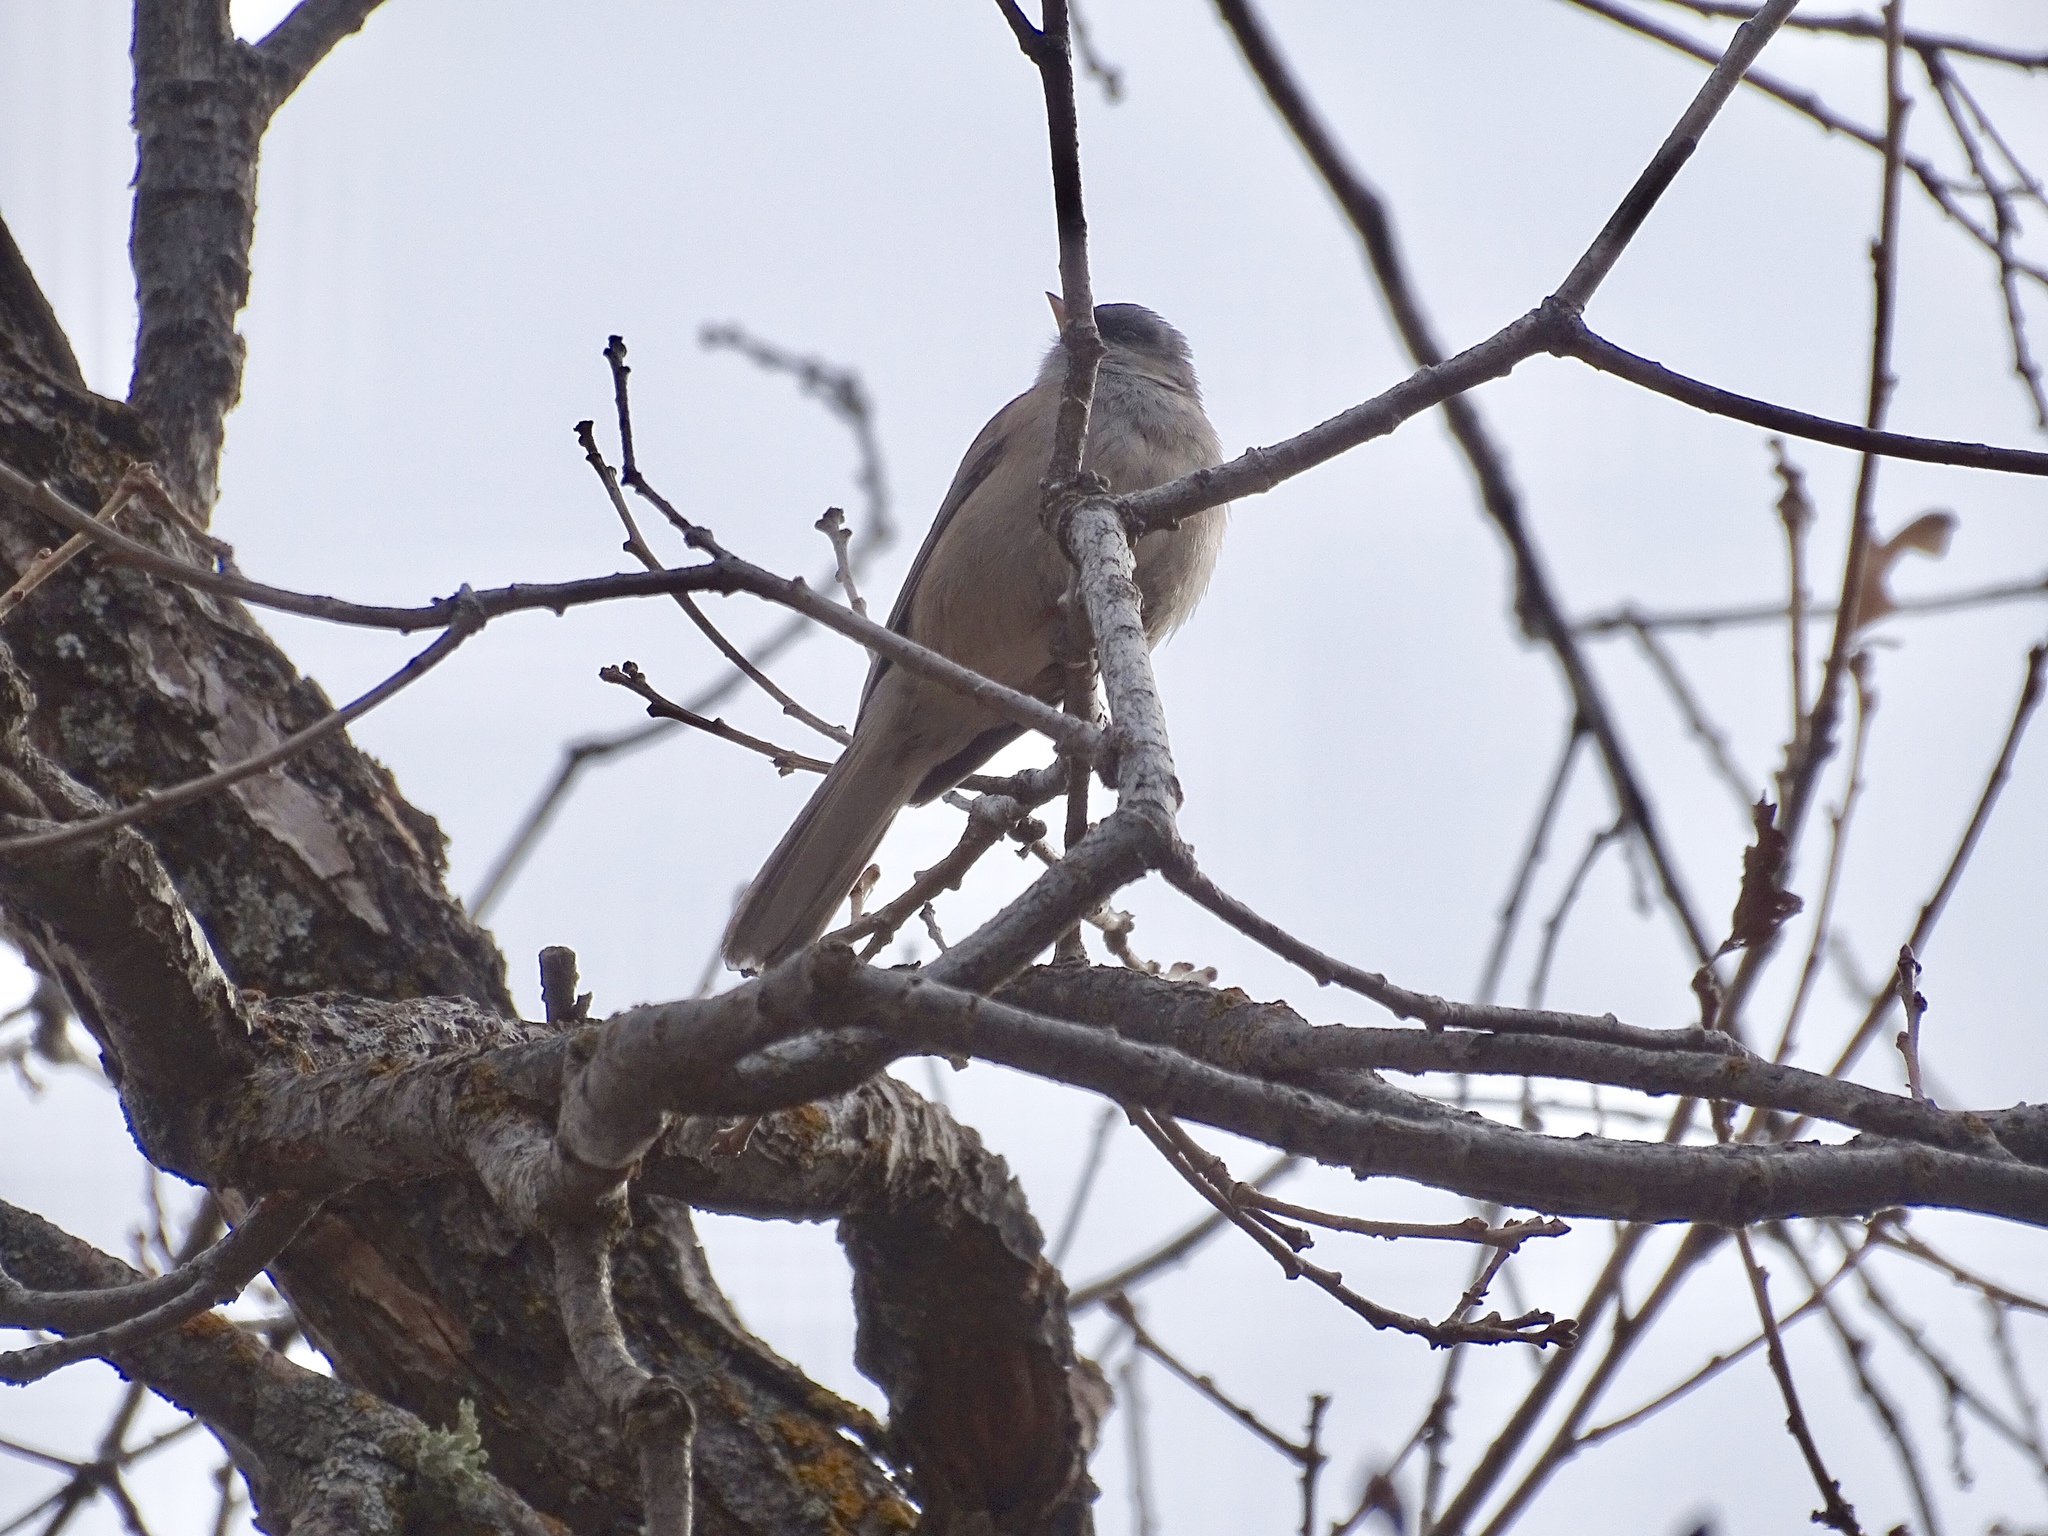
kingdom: Animalia
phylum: Chordata
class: Aves
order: Passeriformes
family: Passerellidae
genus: Junco
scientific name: Junco hyemalis
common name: Dark-eyed junco
